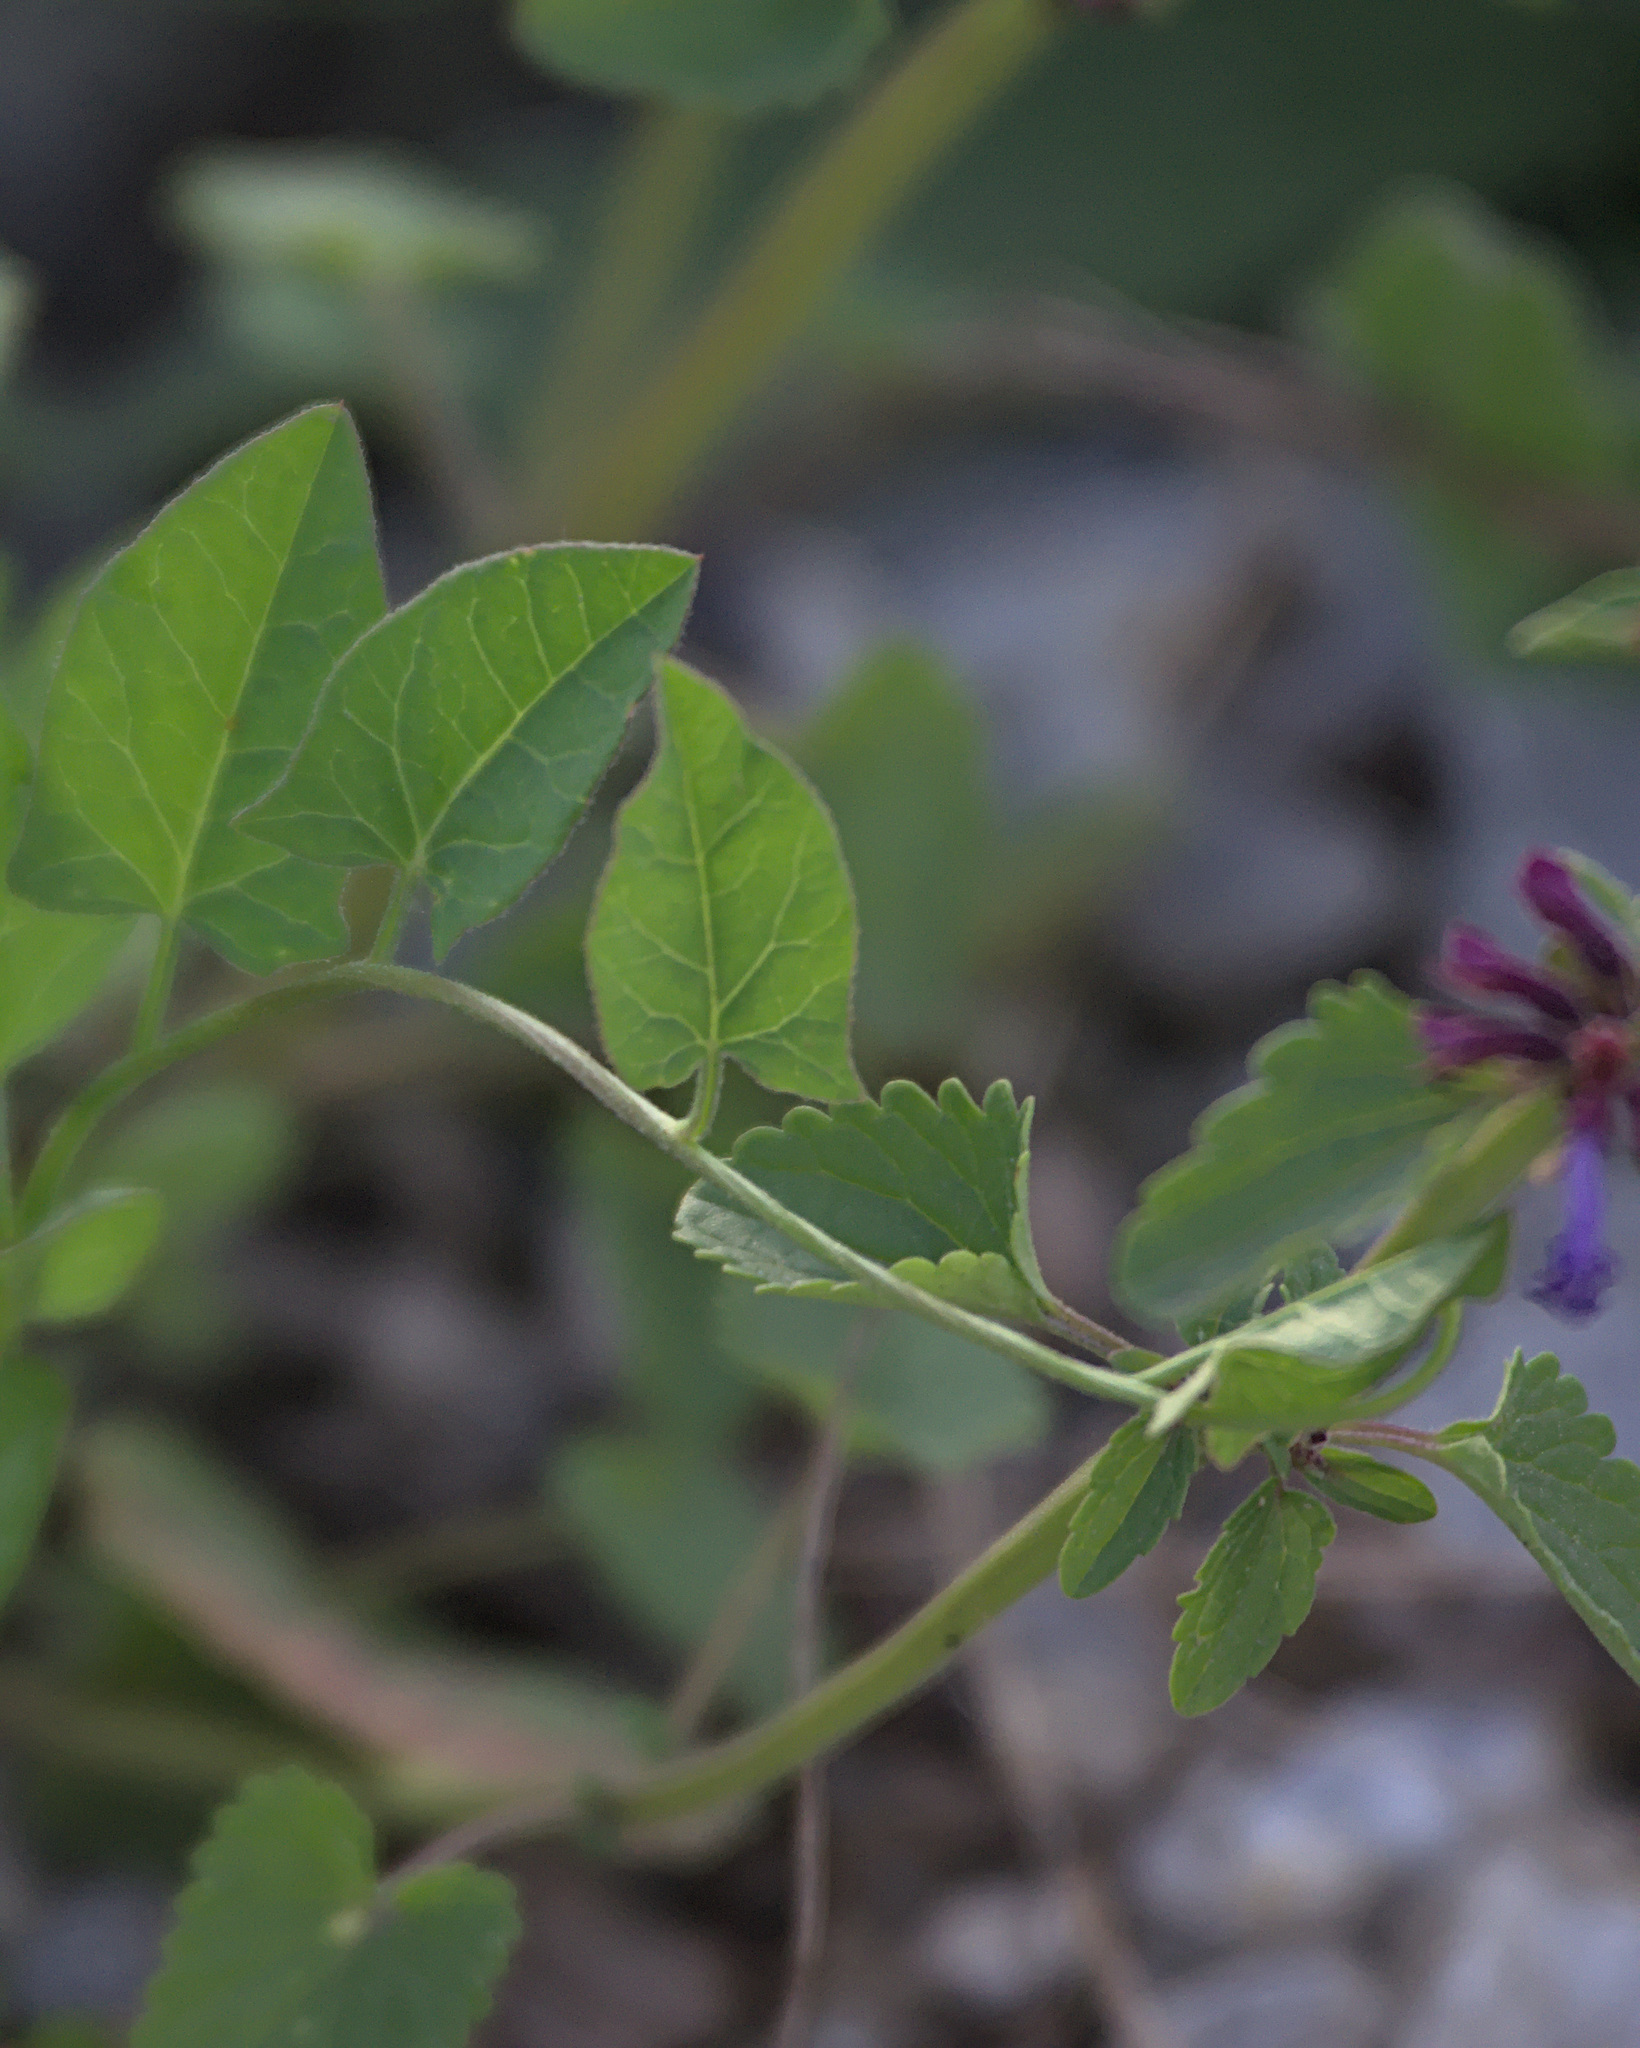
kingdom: Plantae
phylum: Tracheophyta
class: Magnoliopsida
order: Lamiales
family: Lamiaceae
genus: Dracocephalum
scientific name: Dracocephalum nutans
